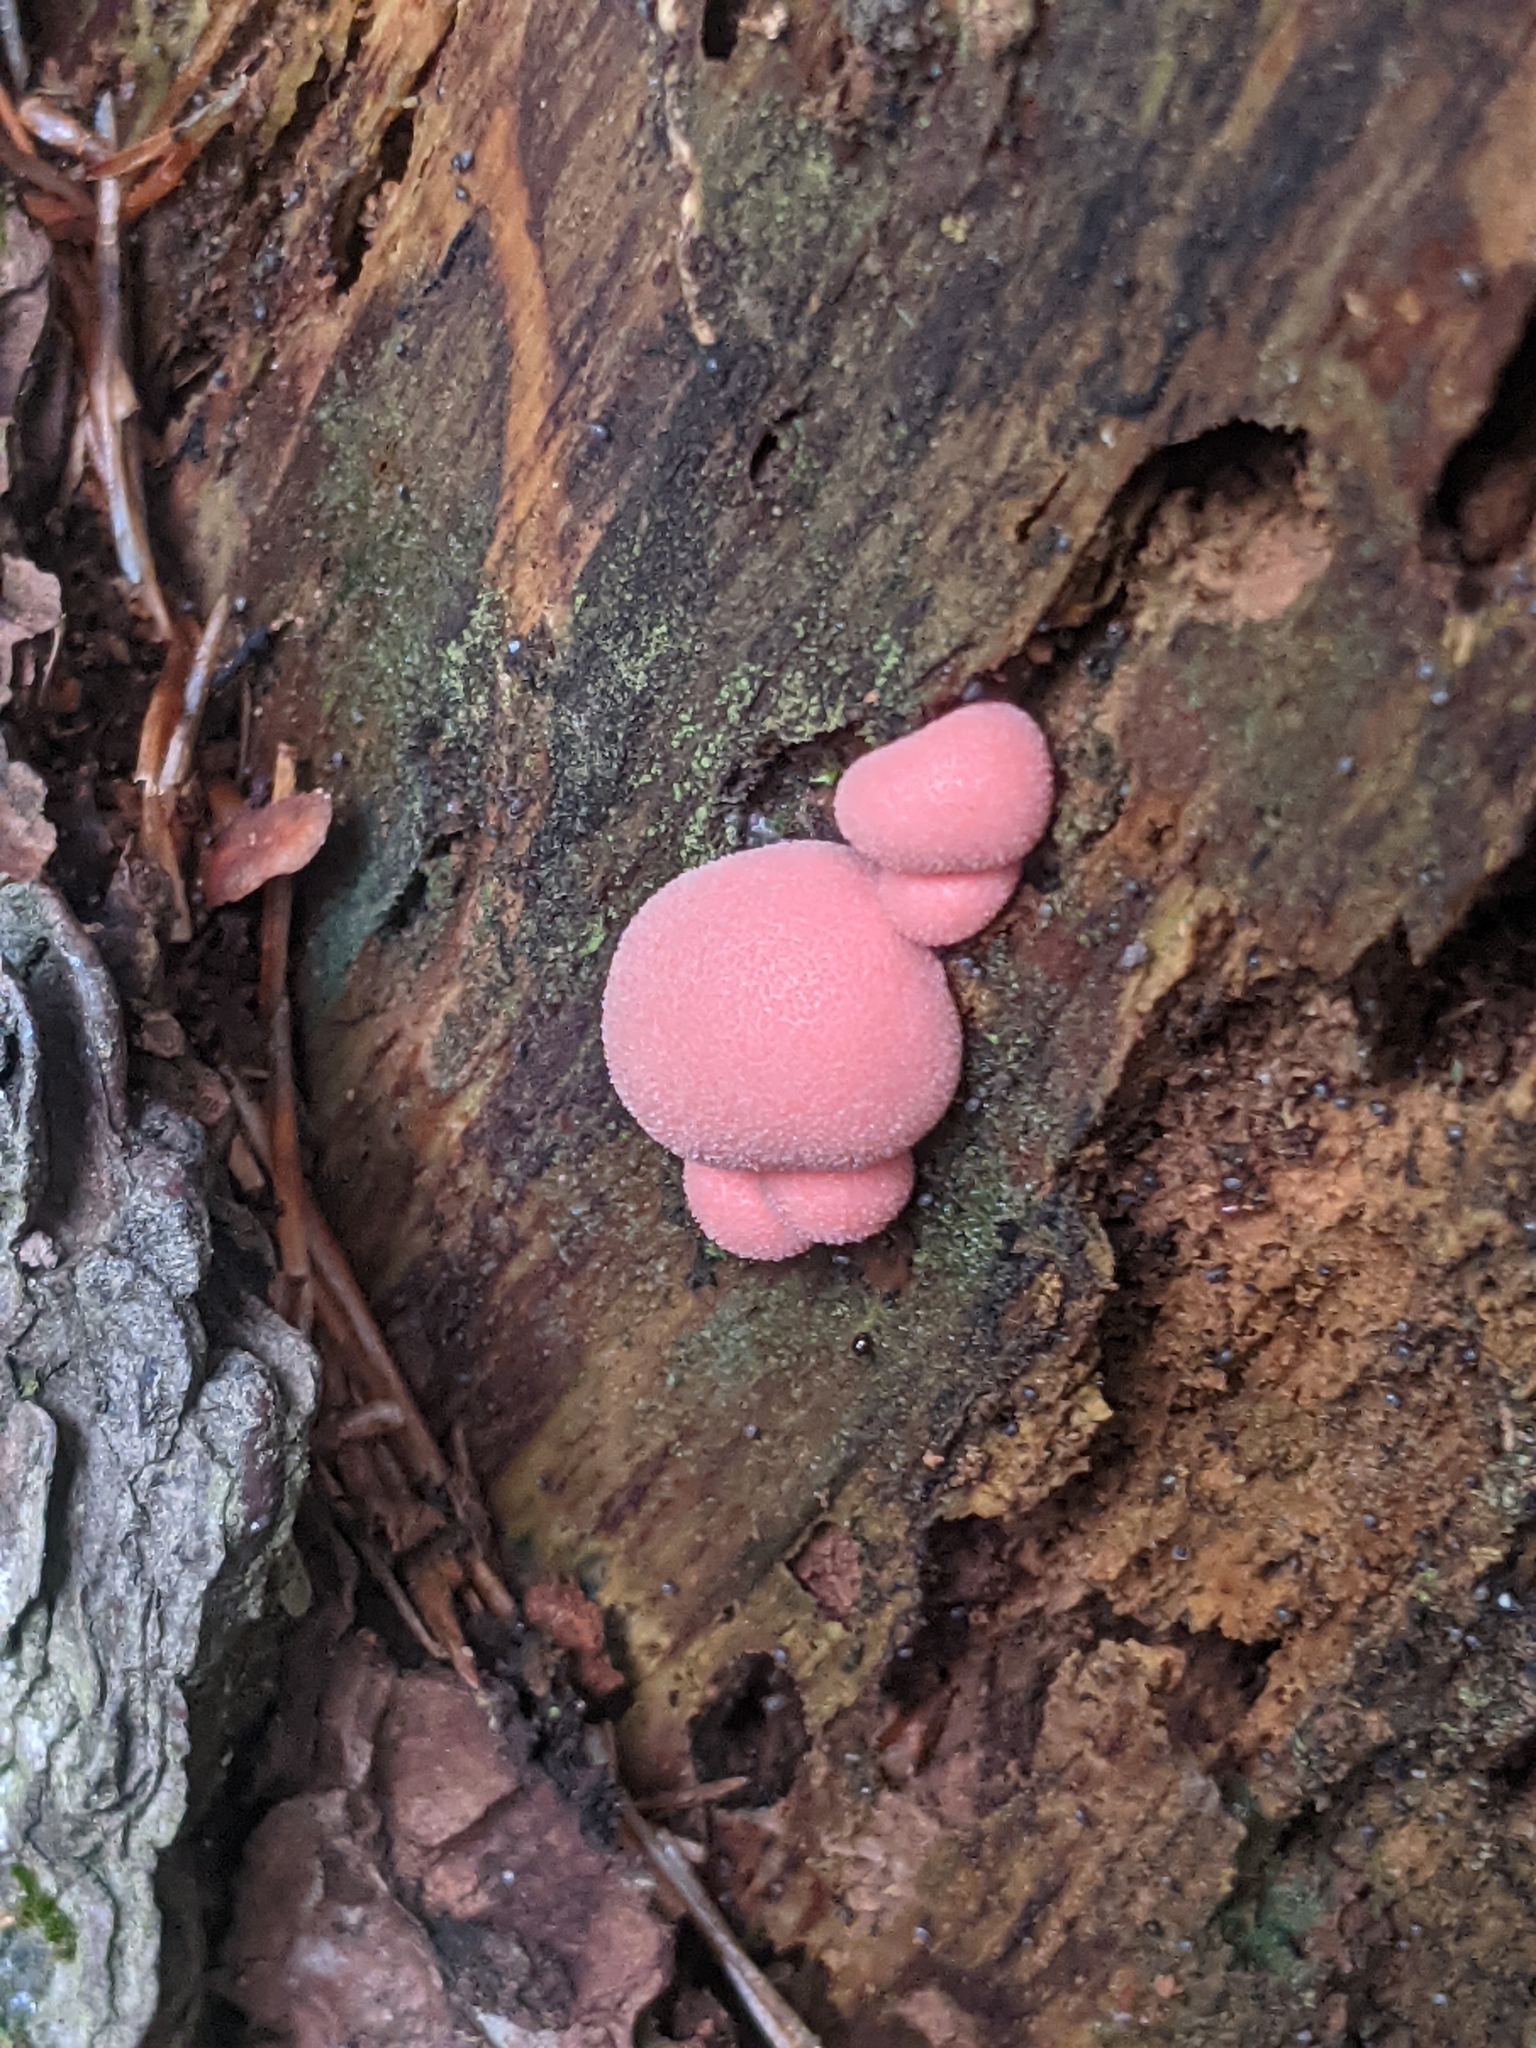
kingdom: Protozoa
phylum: Mycetozoa
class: Myxomycetes
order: Cribrariales
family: Tubiferaceae
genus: Lycogala
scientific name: Lycogala epidendrum
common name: Wolf's milk
